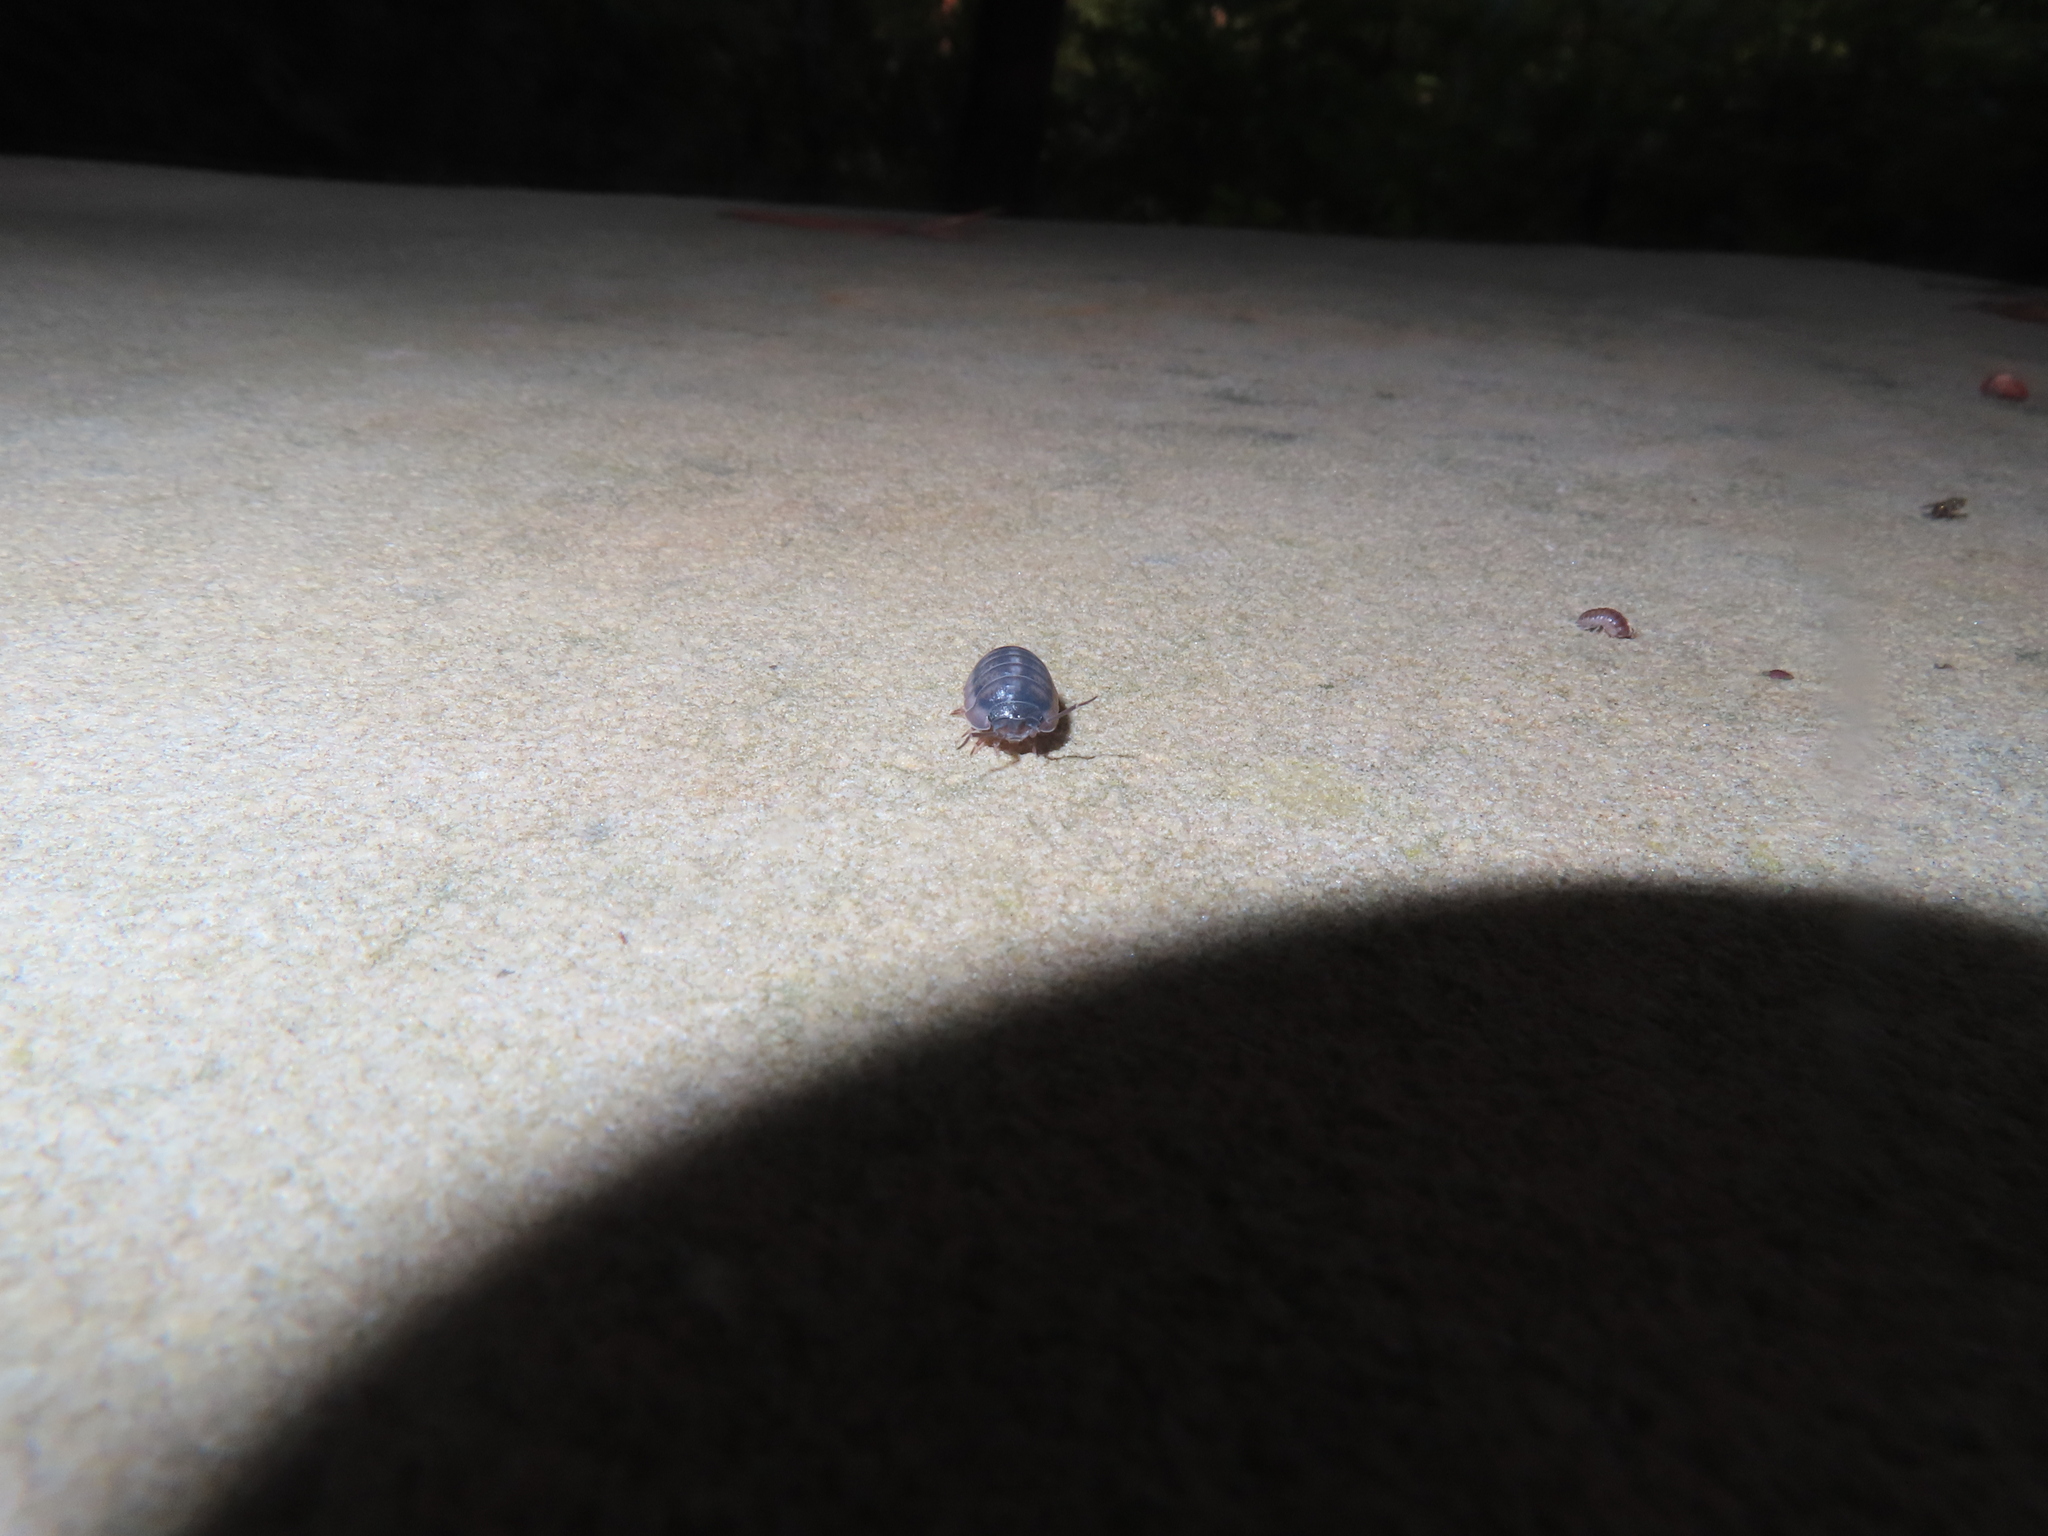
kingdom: Animalia
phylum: Arthropoda
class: Malacostraca
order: Isopoda
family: Armadillidiidae
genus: Armadillidium
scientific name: Armadillidium nasatum
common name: Isopod
